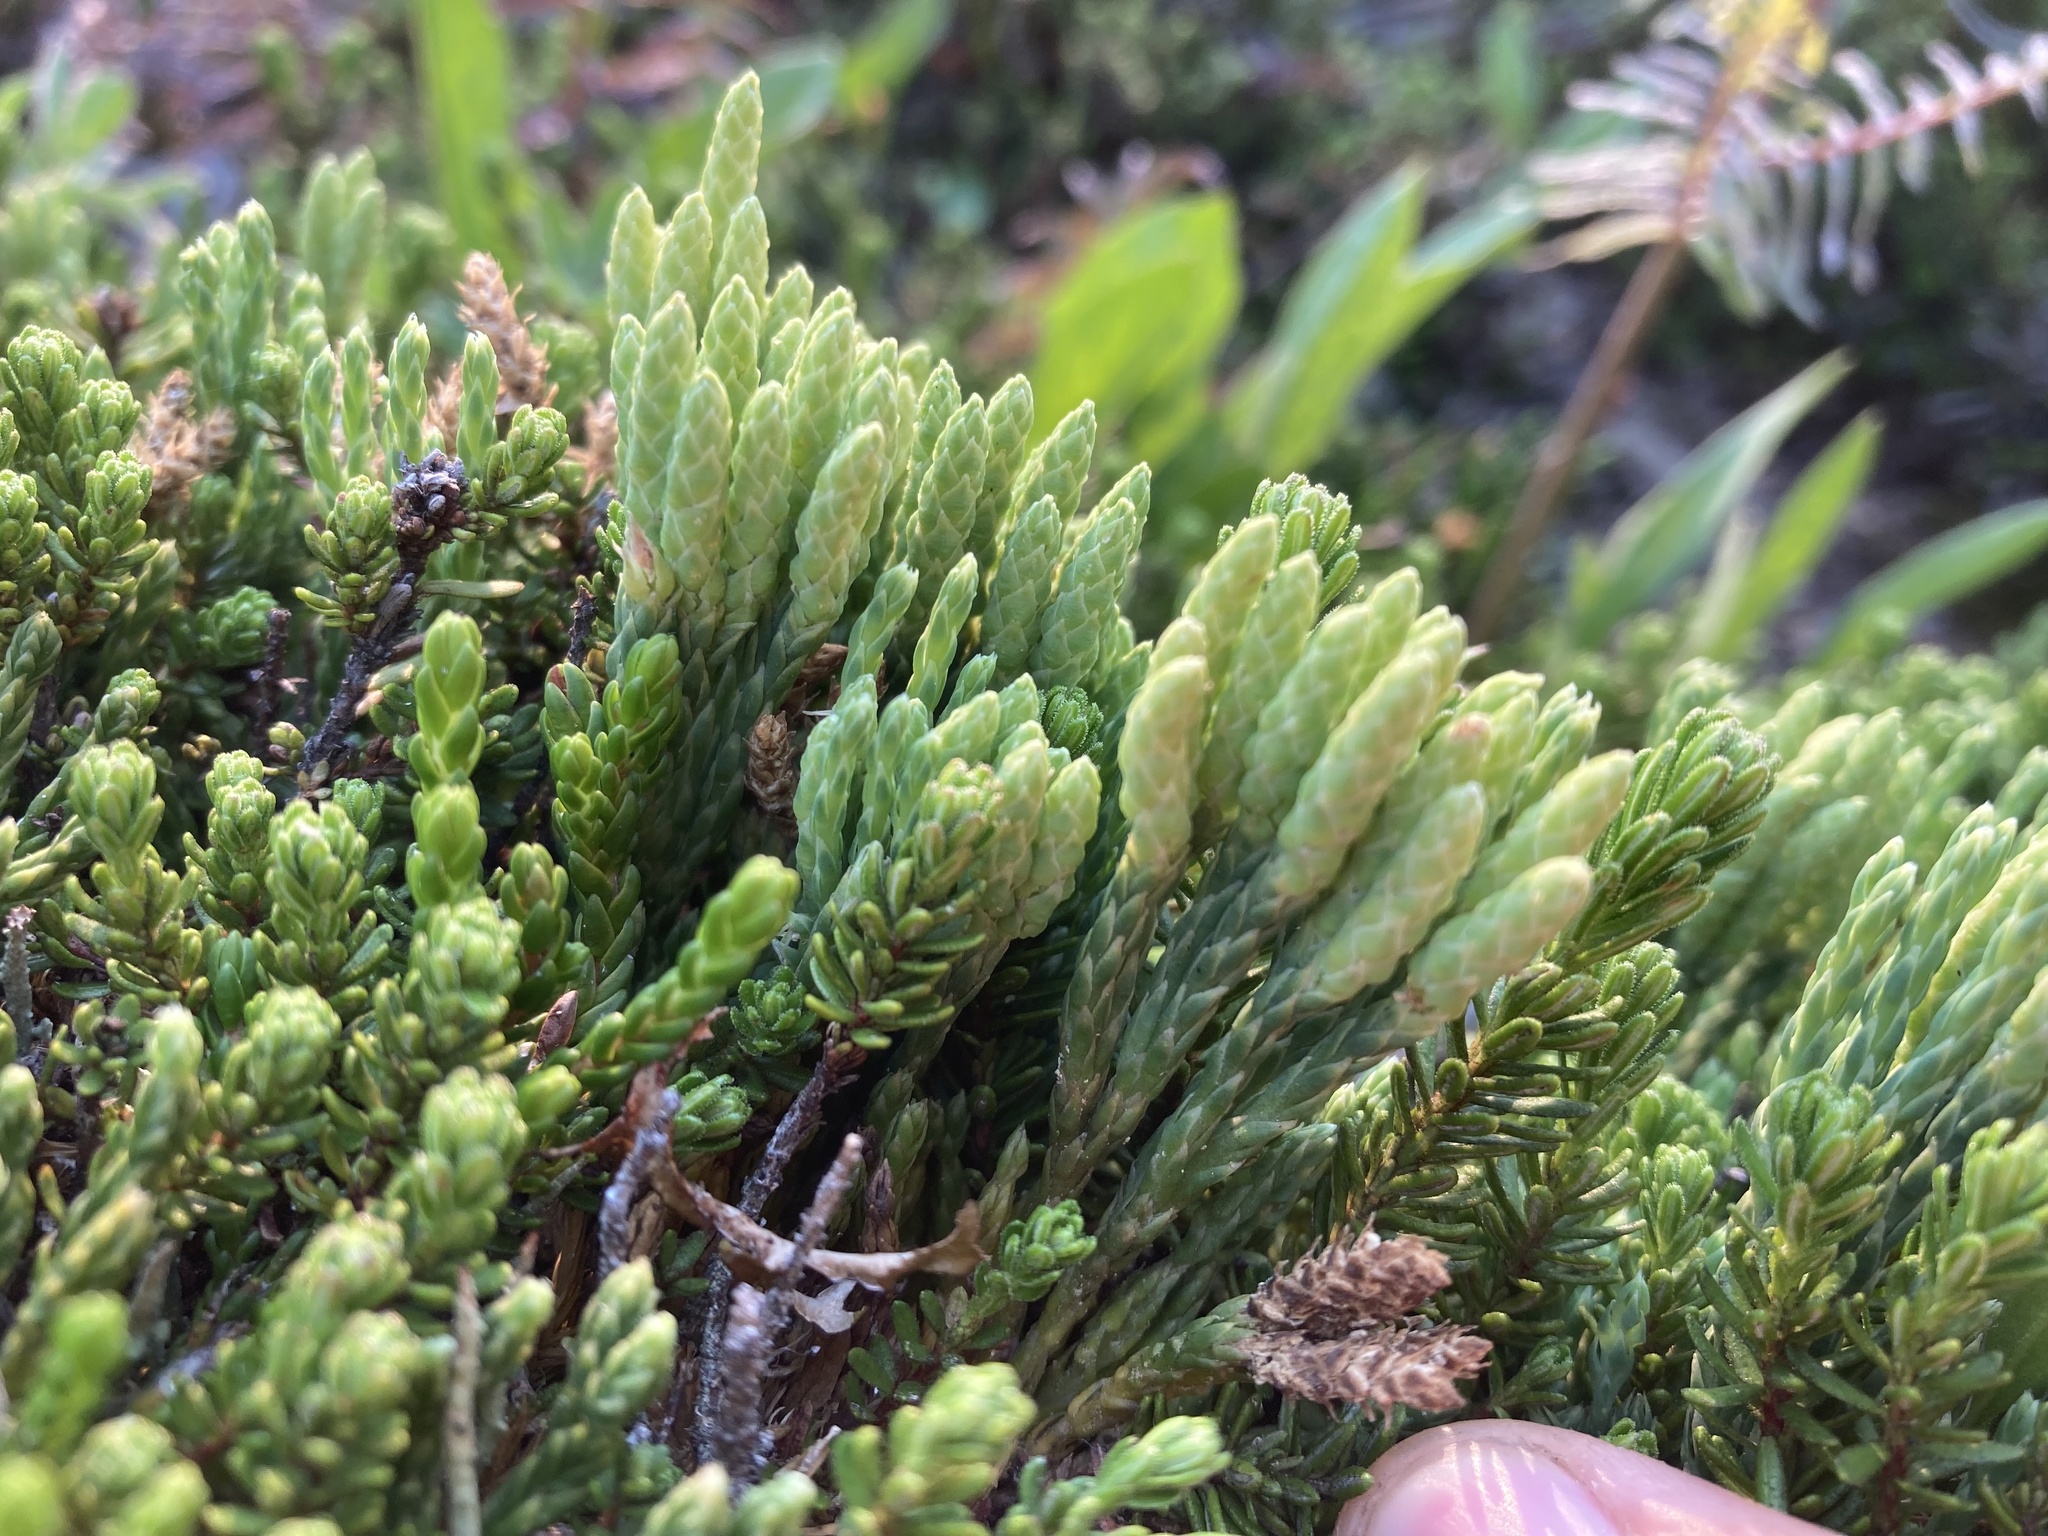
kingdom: Plantae
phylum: Tracheophyta
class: Lycopodiopsida
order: Lycopodiales
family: Lycopodiaceae
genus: Diphasiastrum
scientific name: Diphasiastrum sitchense
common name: Alaska clubmoss
